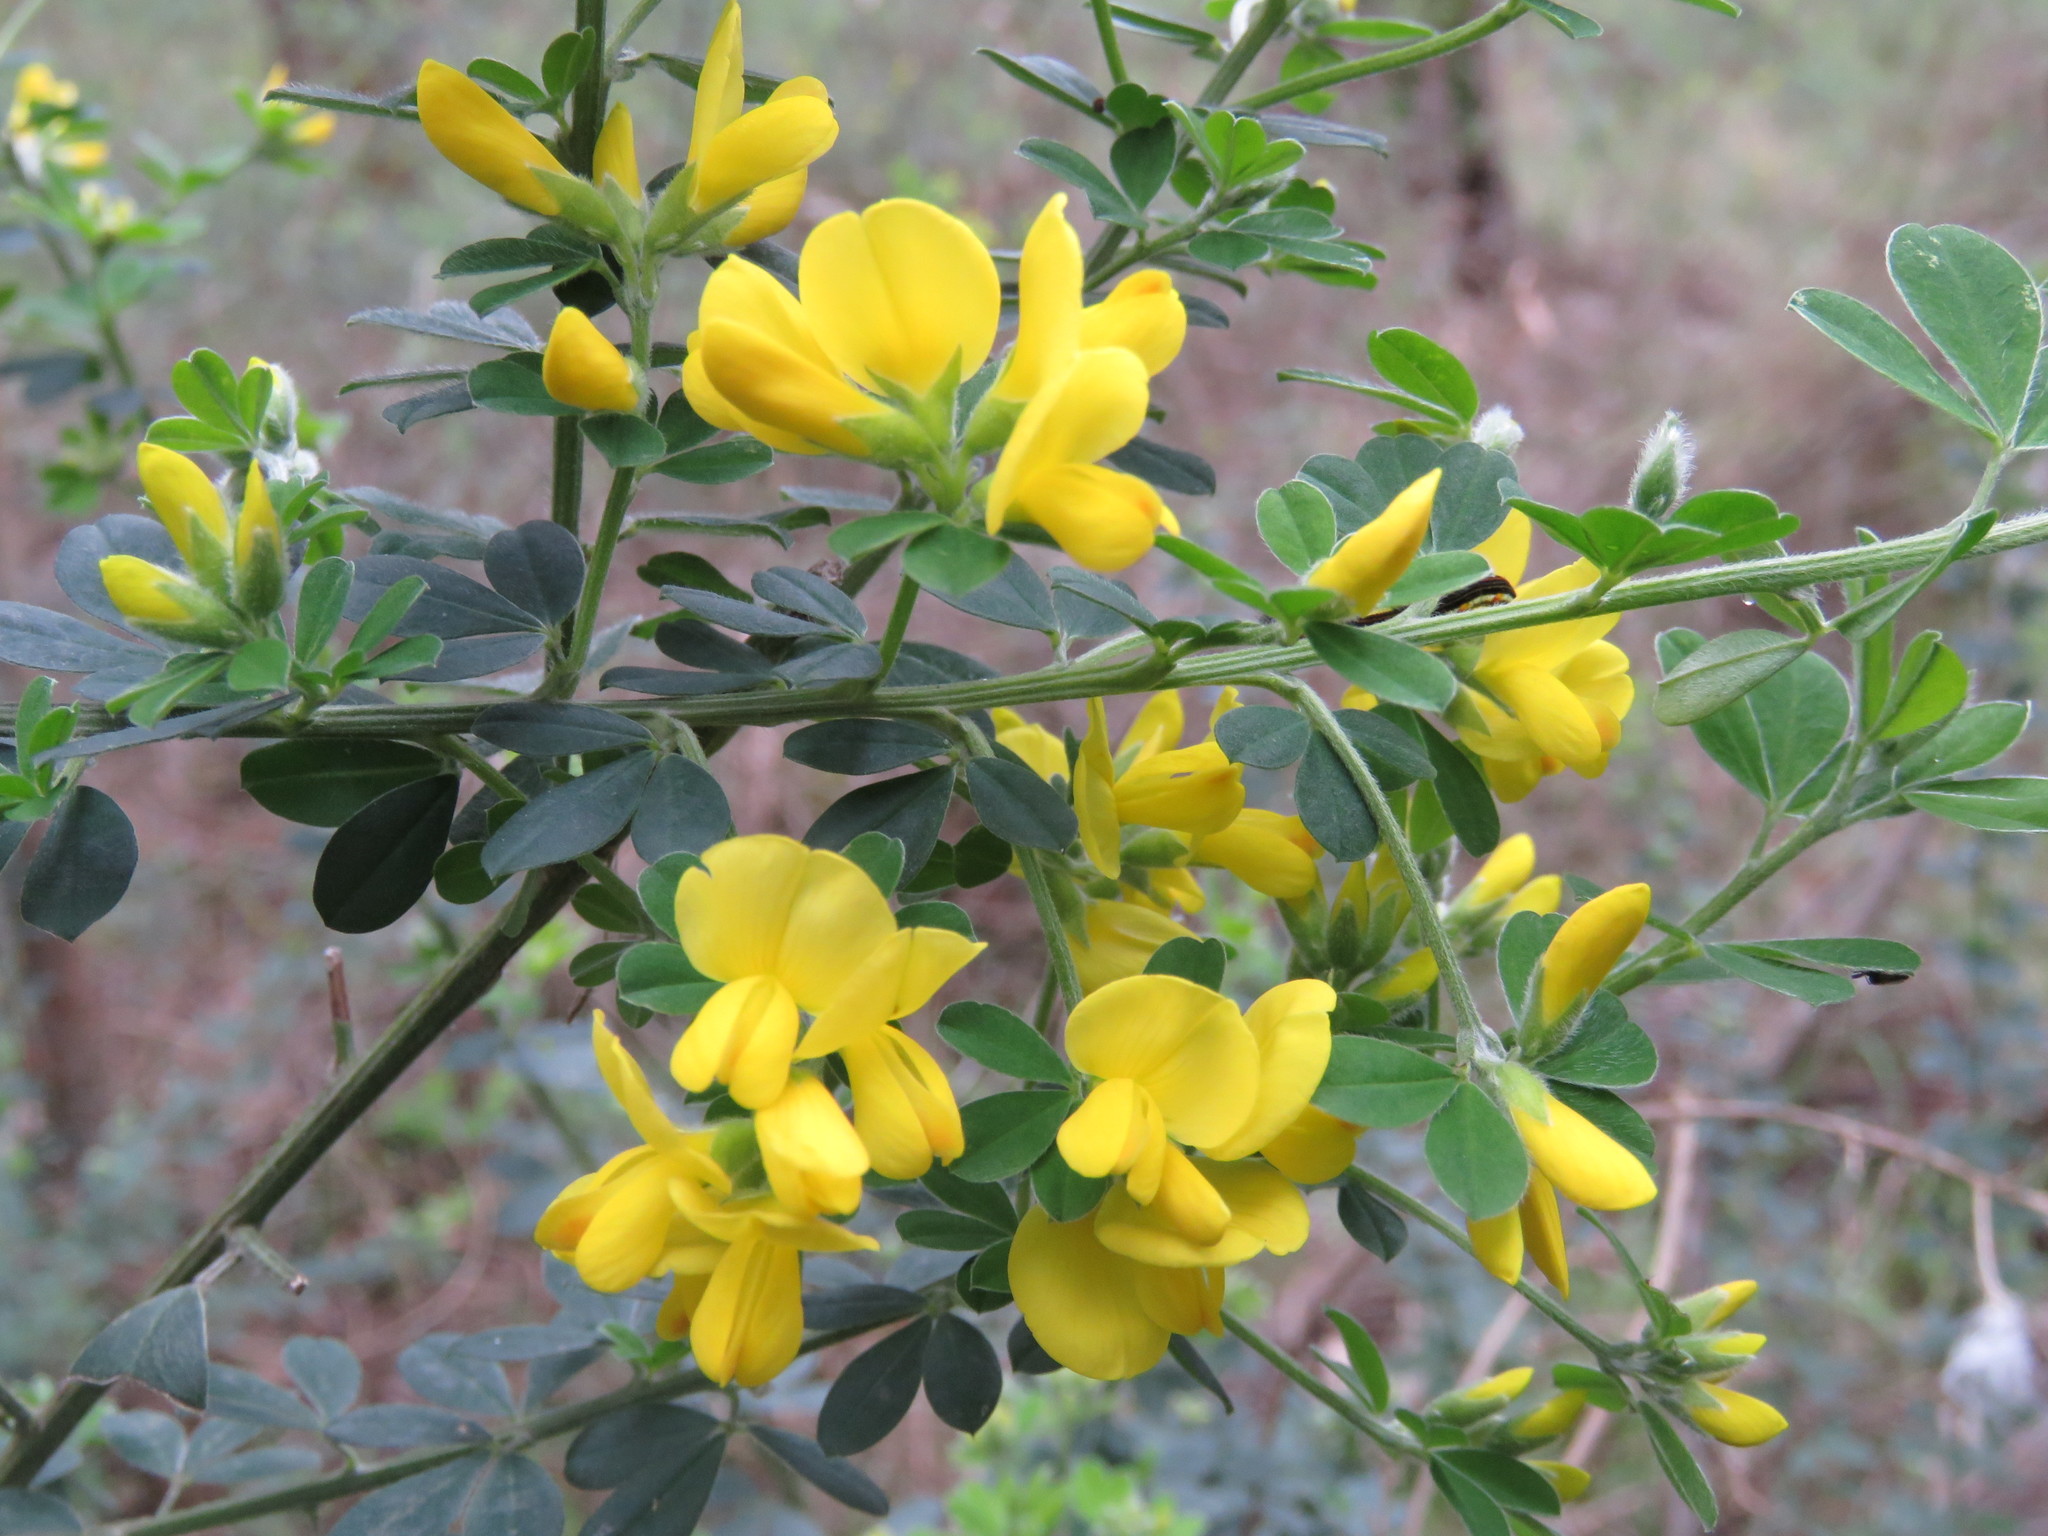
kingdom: Plantae
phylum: Tracheophyta
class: Magnoliopsida
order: Fabales
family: Fabaceae
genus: Genista
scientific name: Genista monspessulana
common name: Montpellier broom
